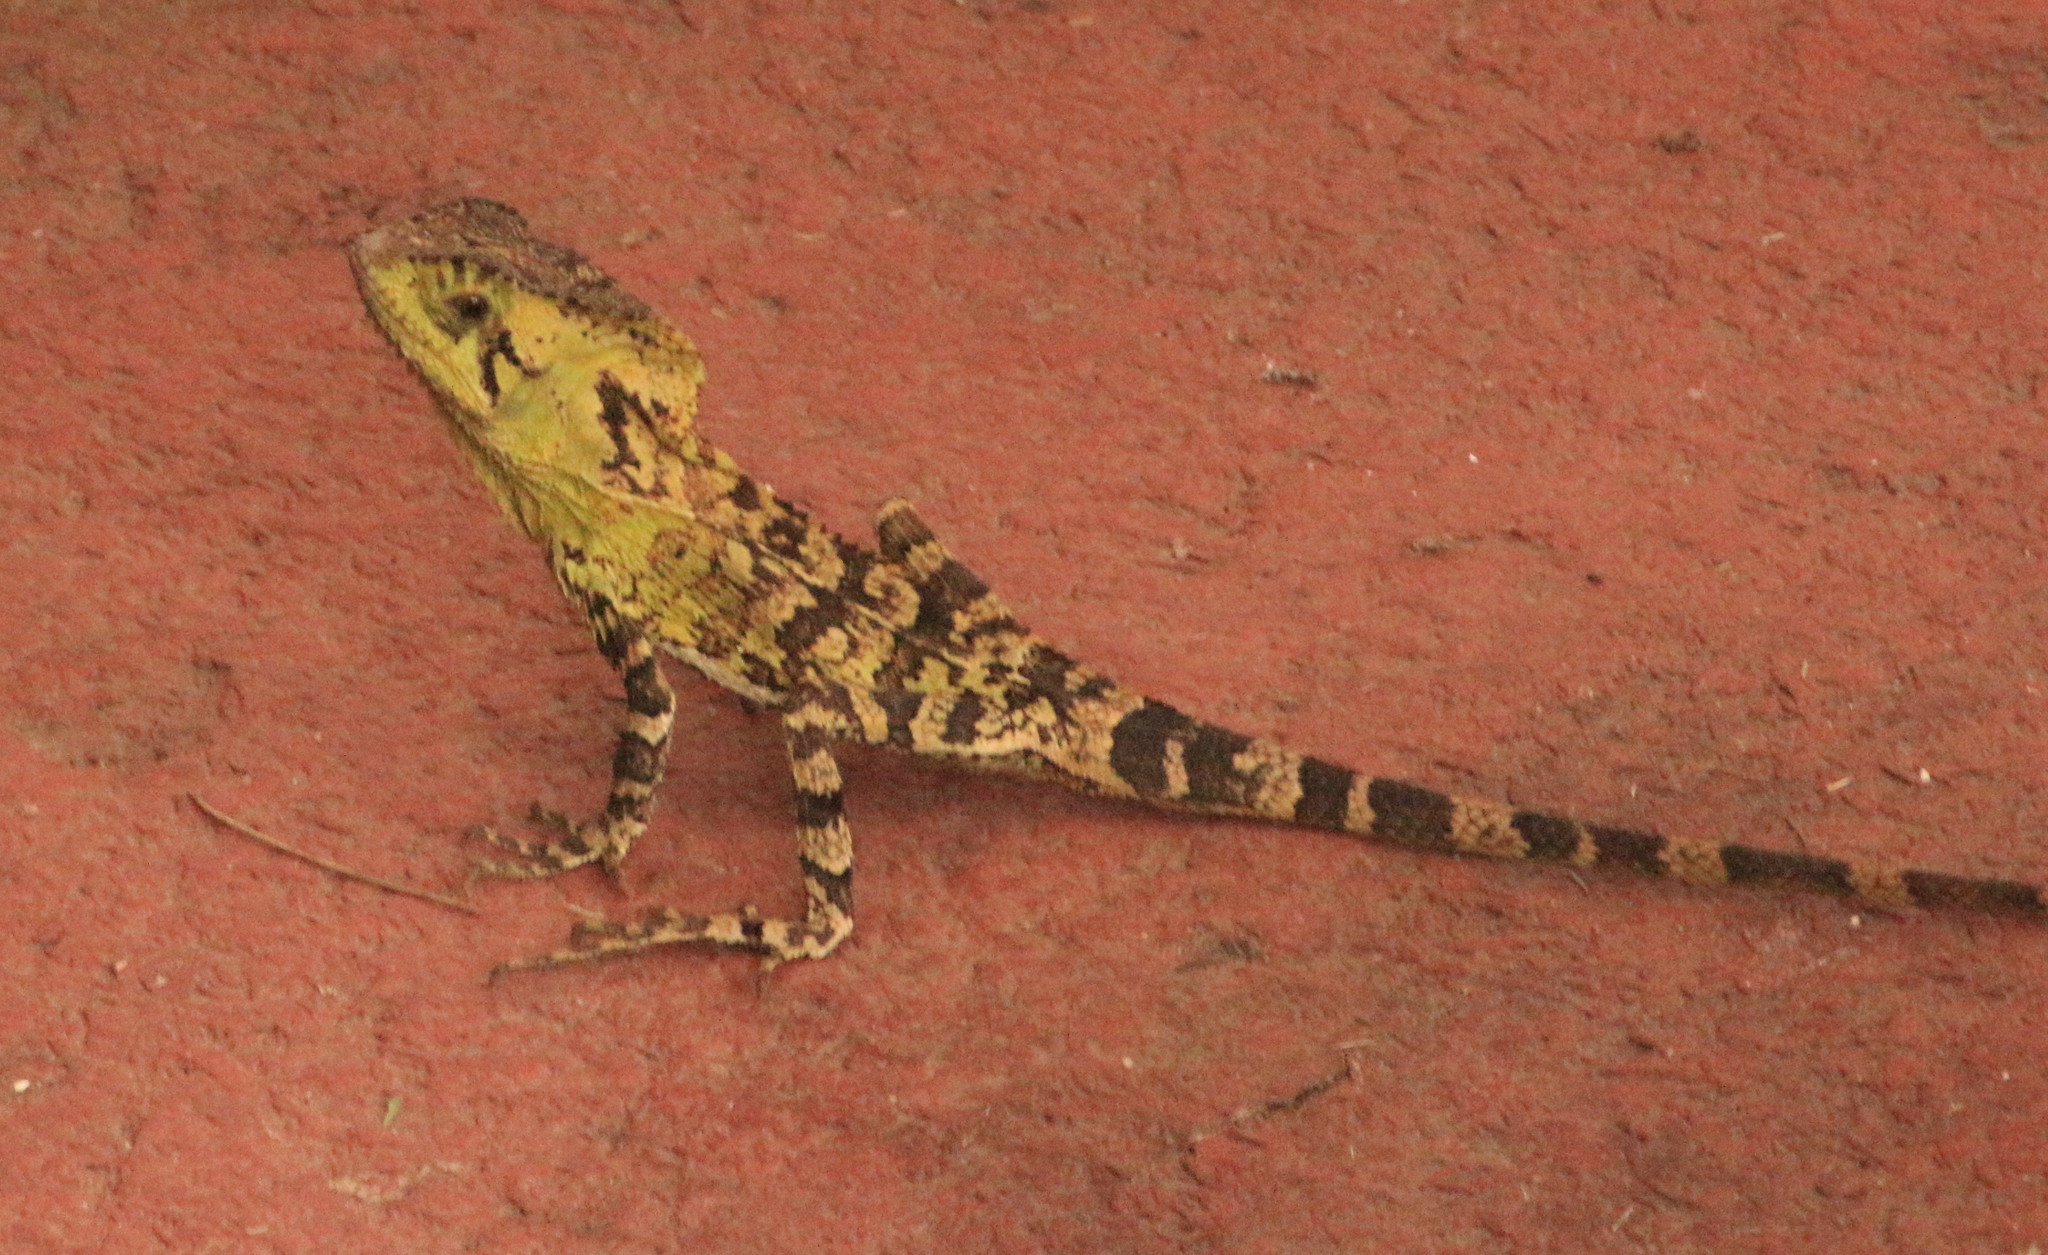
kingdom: Animalia
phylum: Chordata
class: Squamata
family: Corytophanidae
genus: Corytophanes
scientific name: Corytophanes percarinatus
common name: Keeled helmeted iguana
